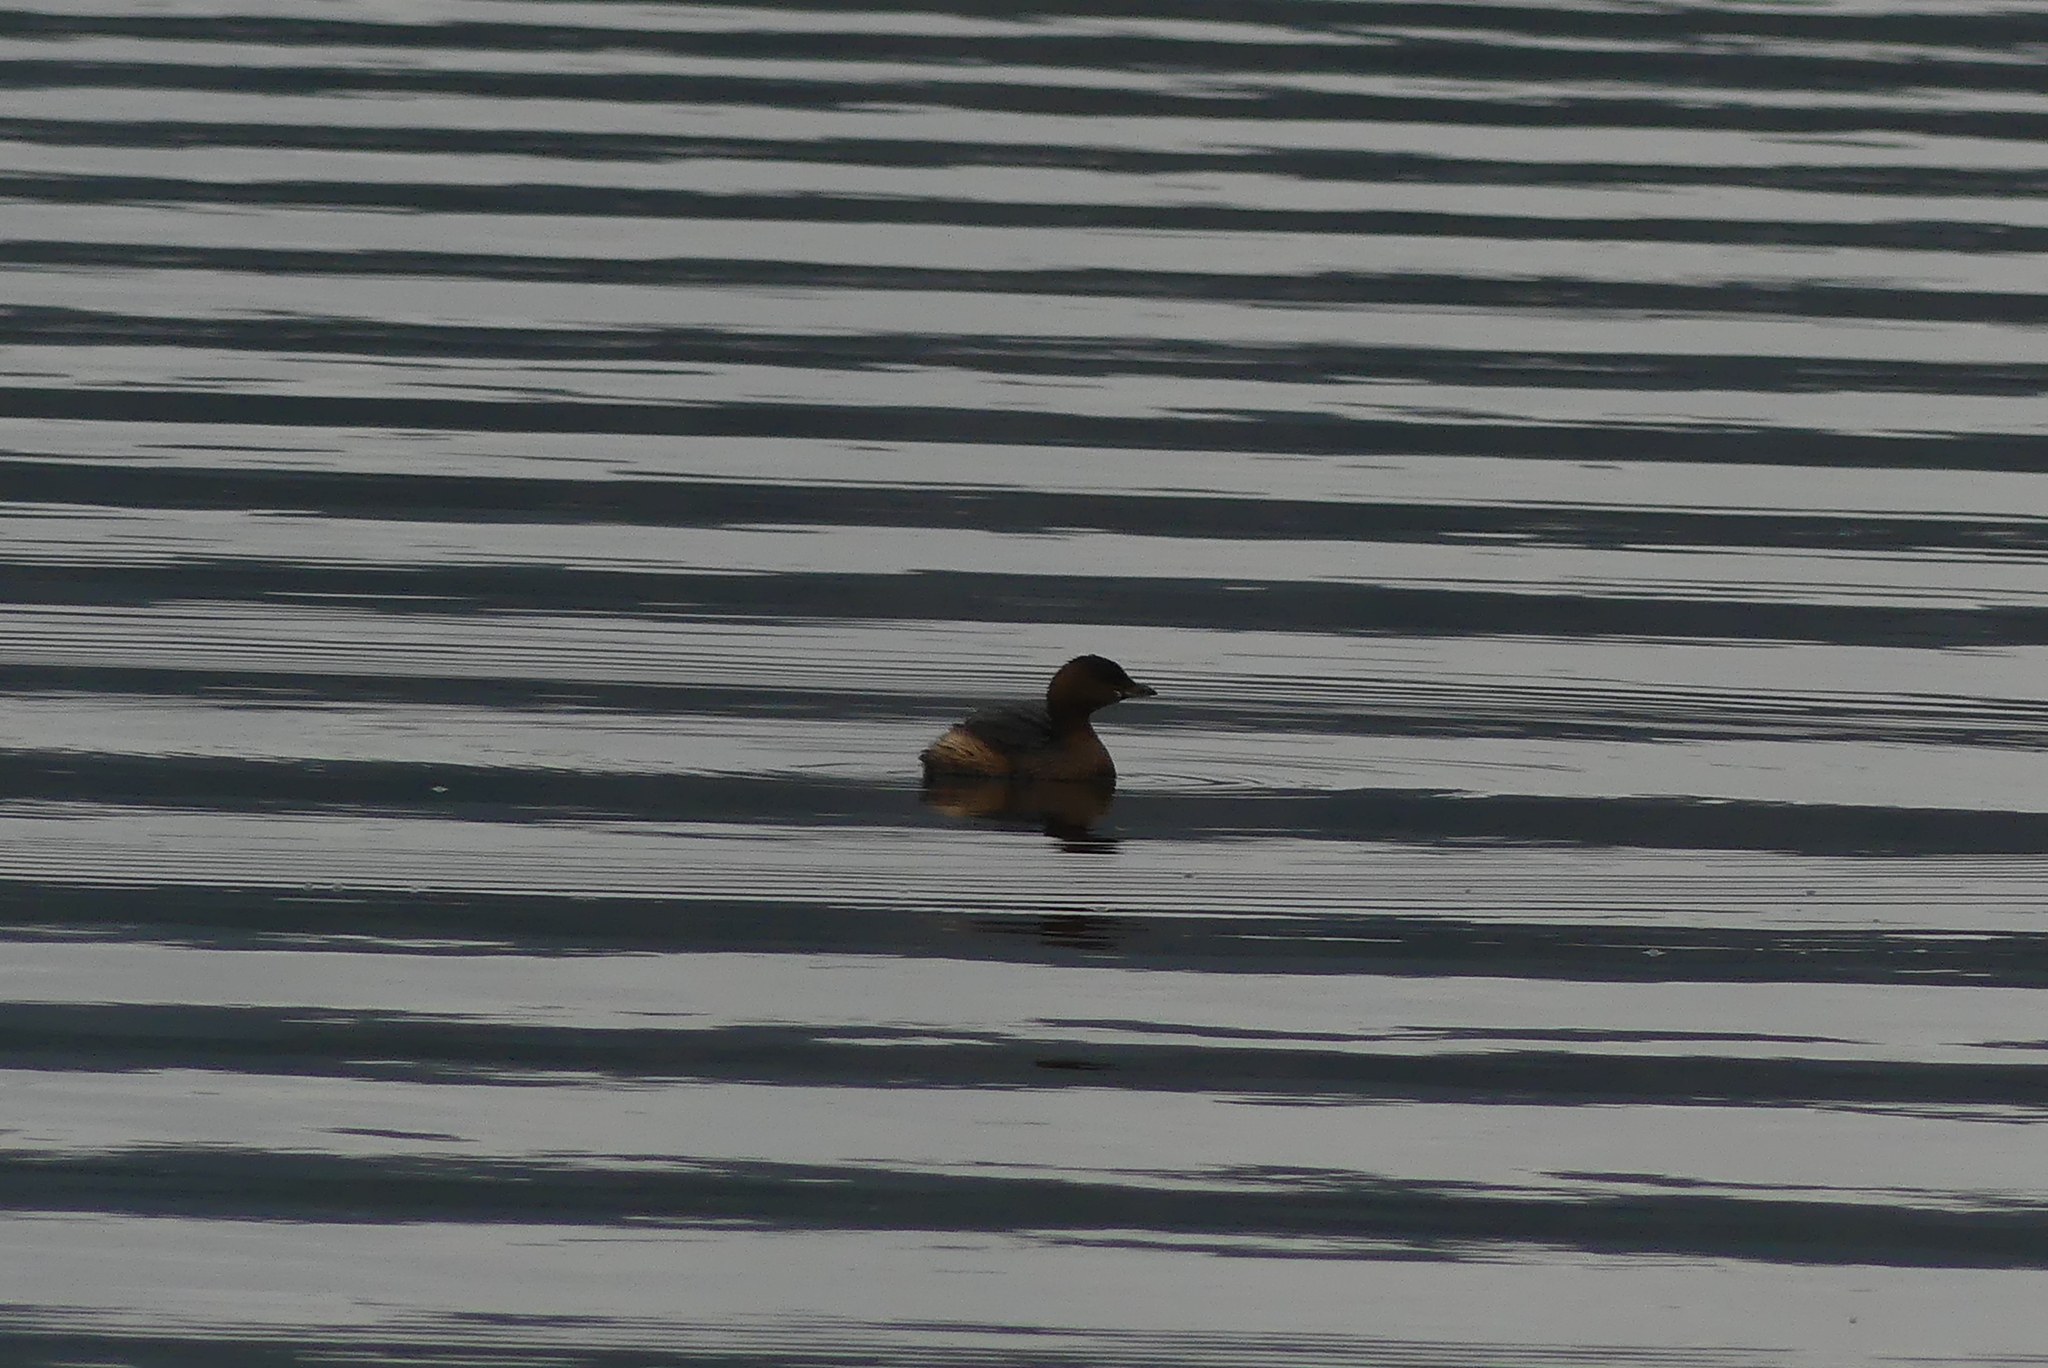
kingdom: Animalia
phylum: Chordata
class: Aves
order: Podicipediformes
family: Podicipedidae
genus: Podilymbus
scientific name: Podilymbus podiceps
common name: Pied-billed grebe
